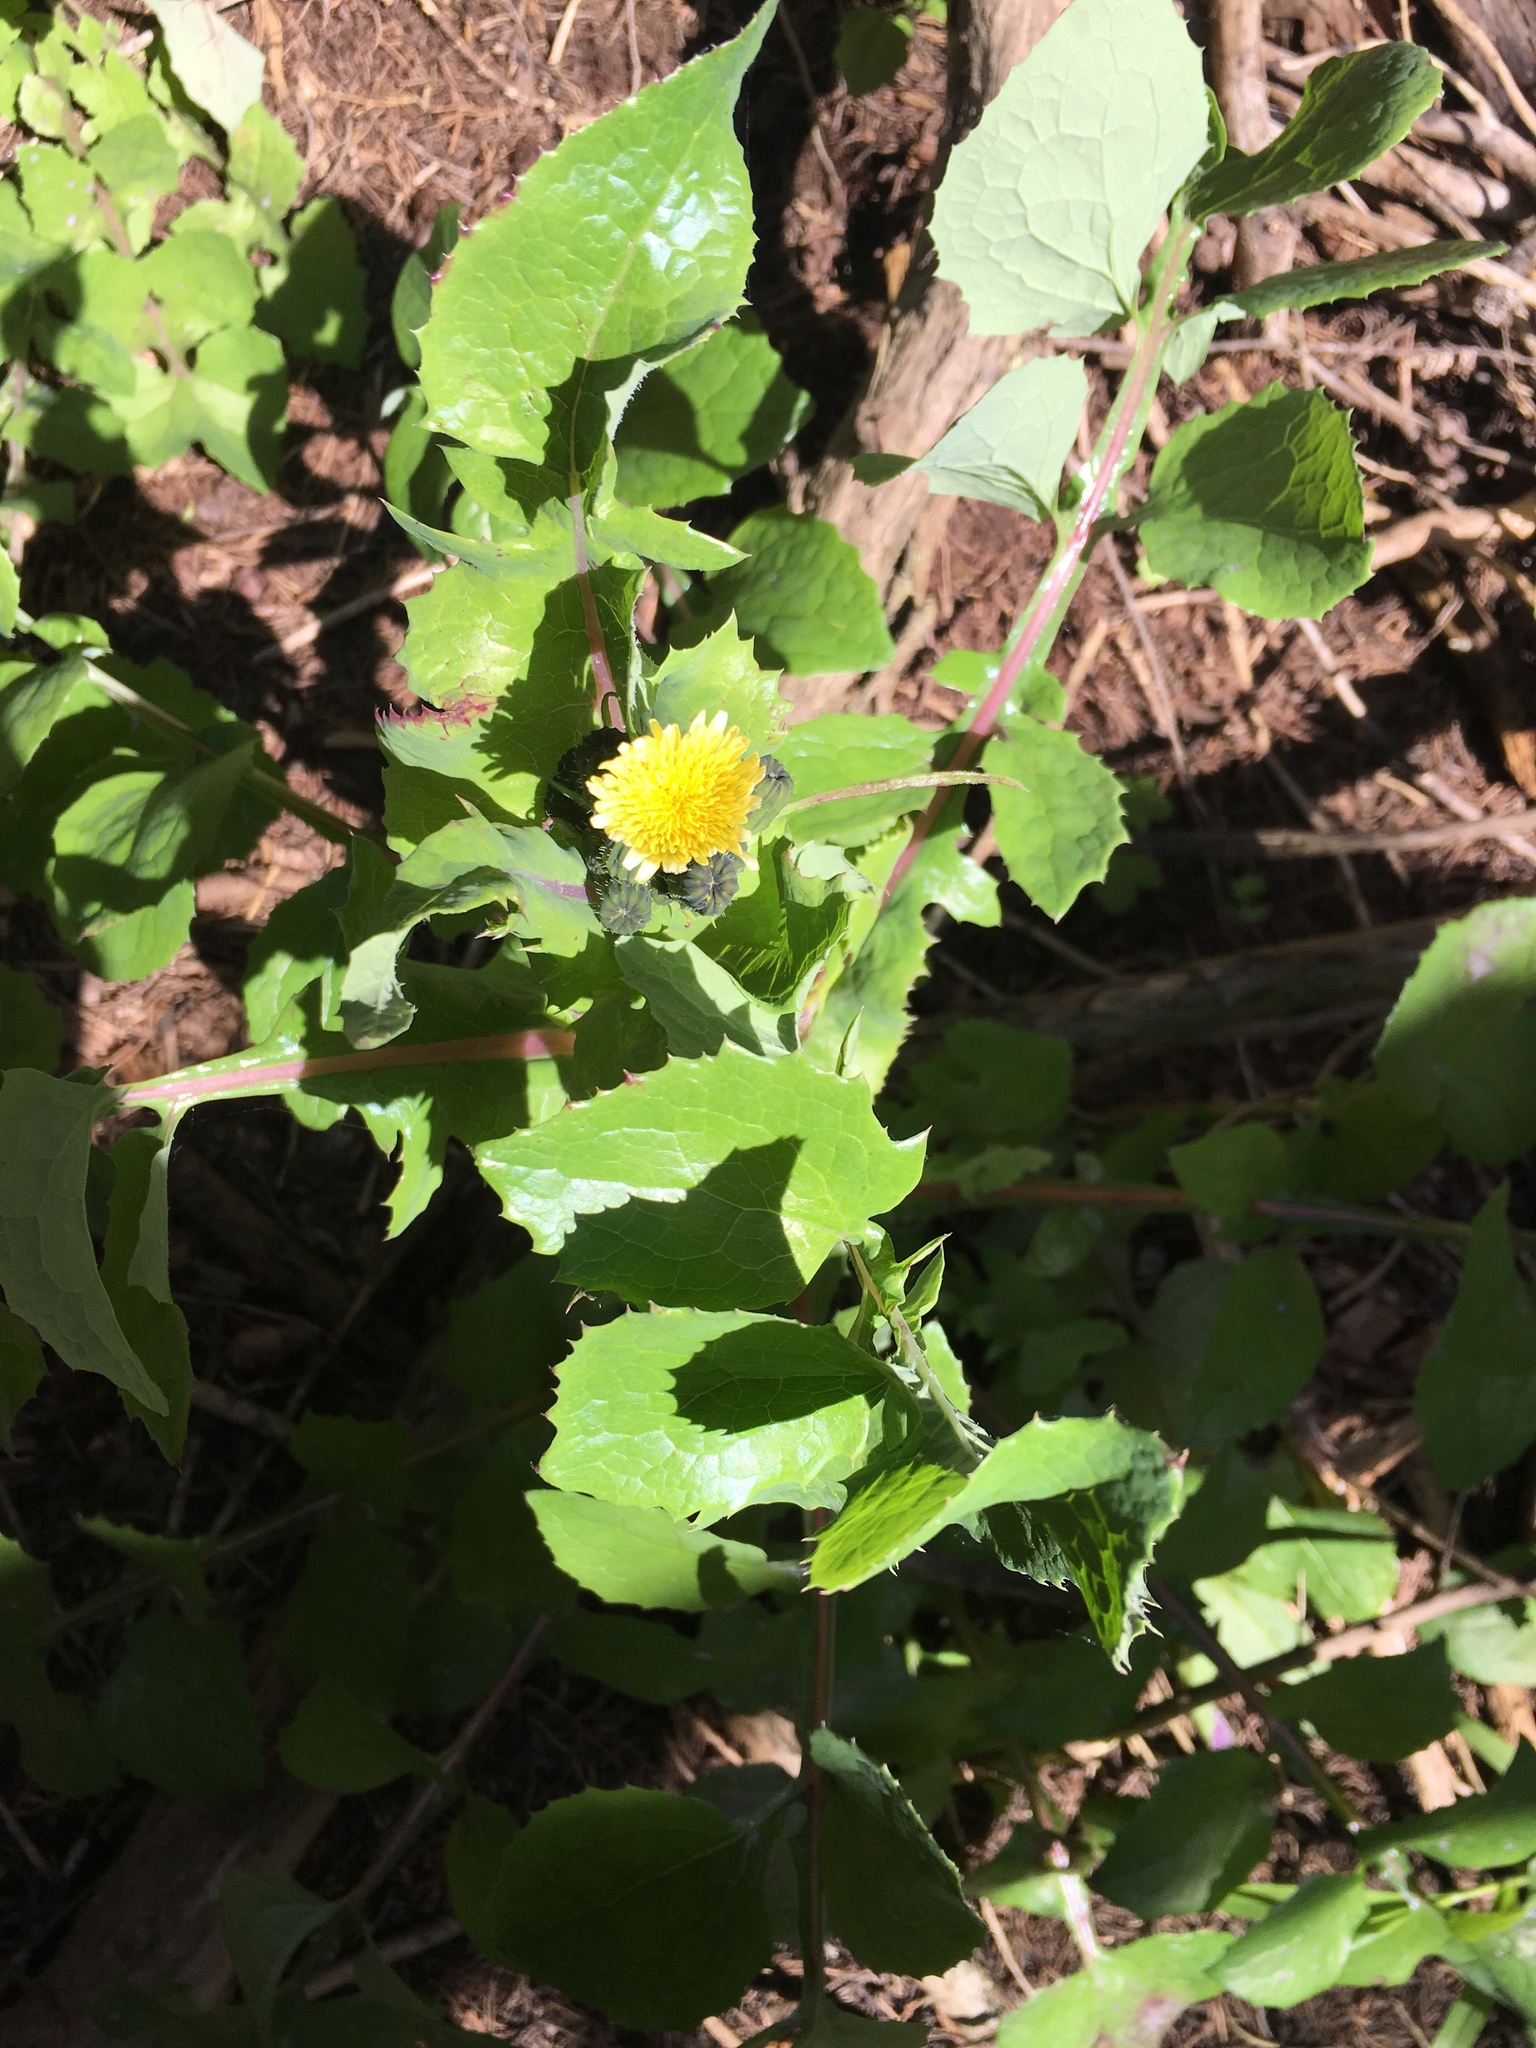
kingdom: Plantae
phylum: Tracheophyta
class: Magnoliopsida
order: Asterales
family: Asteraceae
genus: Sonchus
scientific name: Sonchus oleraceus
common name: Common sowthistle
